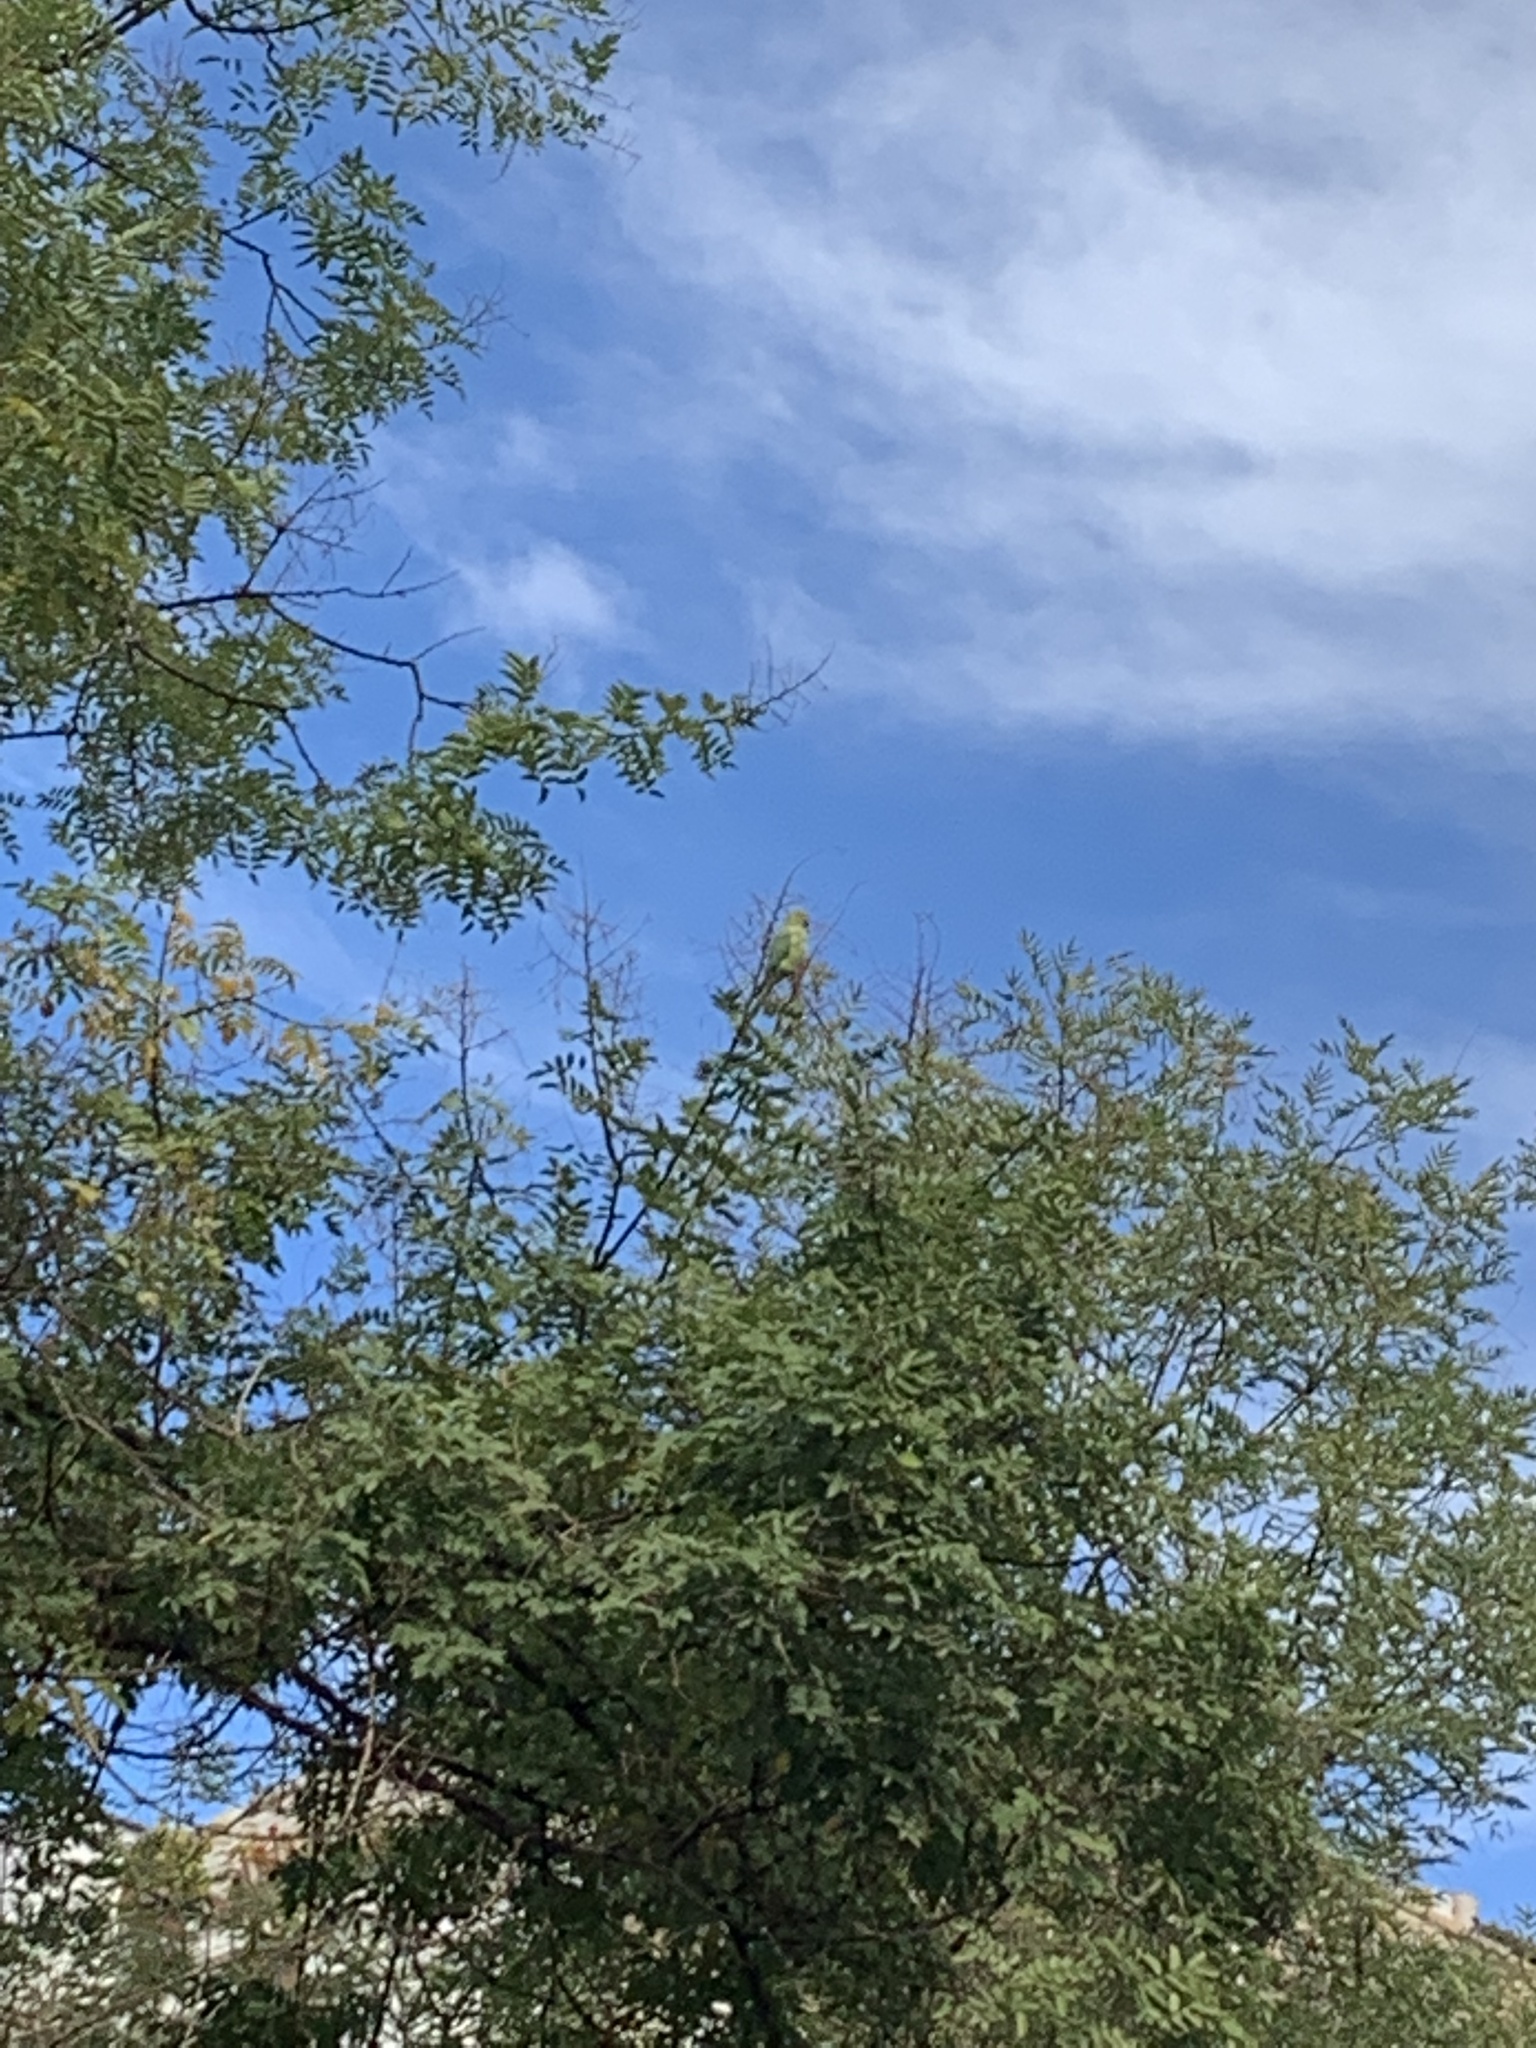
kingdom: Animalia
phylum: Chordata
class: Aves
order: Psittaciformes
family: Psittacidae
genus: Psittacula
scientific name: Psittacula krameri
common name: Rose-ringed parakeet
